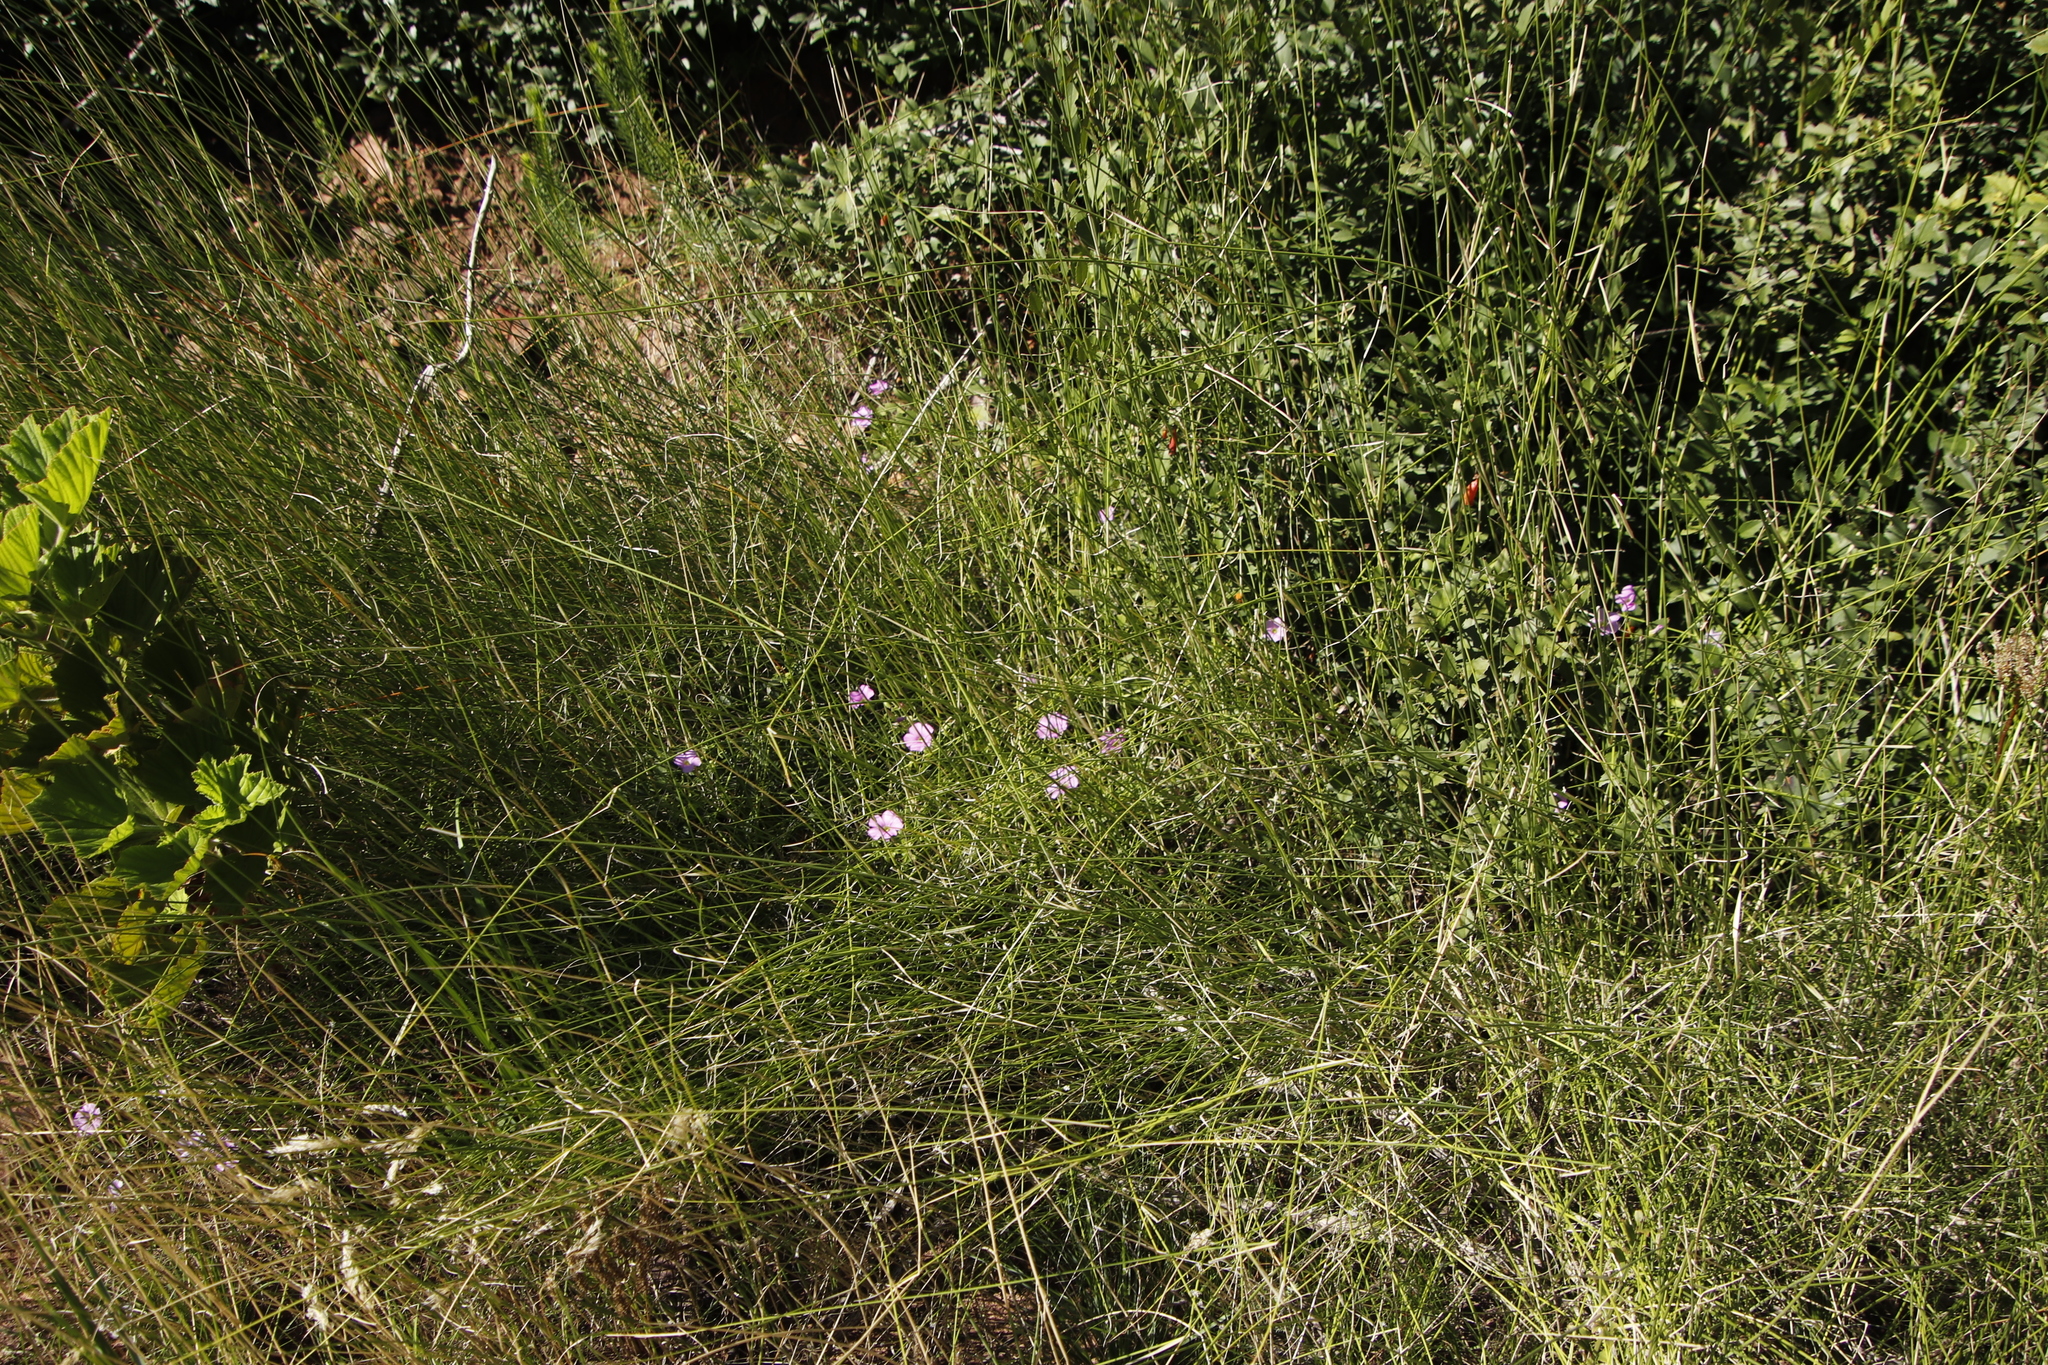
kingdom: Plantae
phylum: Tracheophyta
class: Magnoliopsida
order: Oxalidales
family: Oxalidaceae
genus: Oxalis
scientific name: Oxalis bifida
